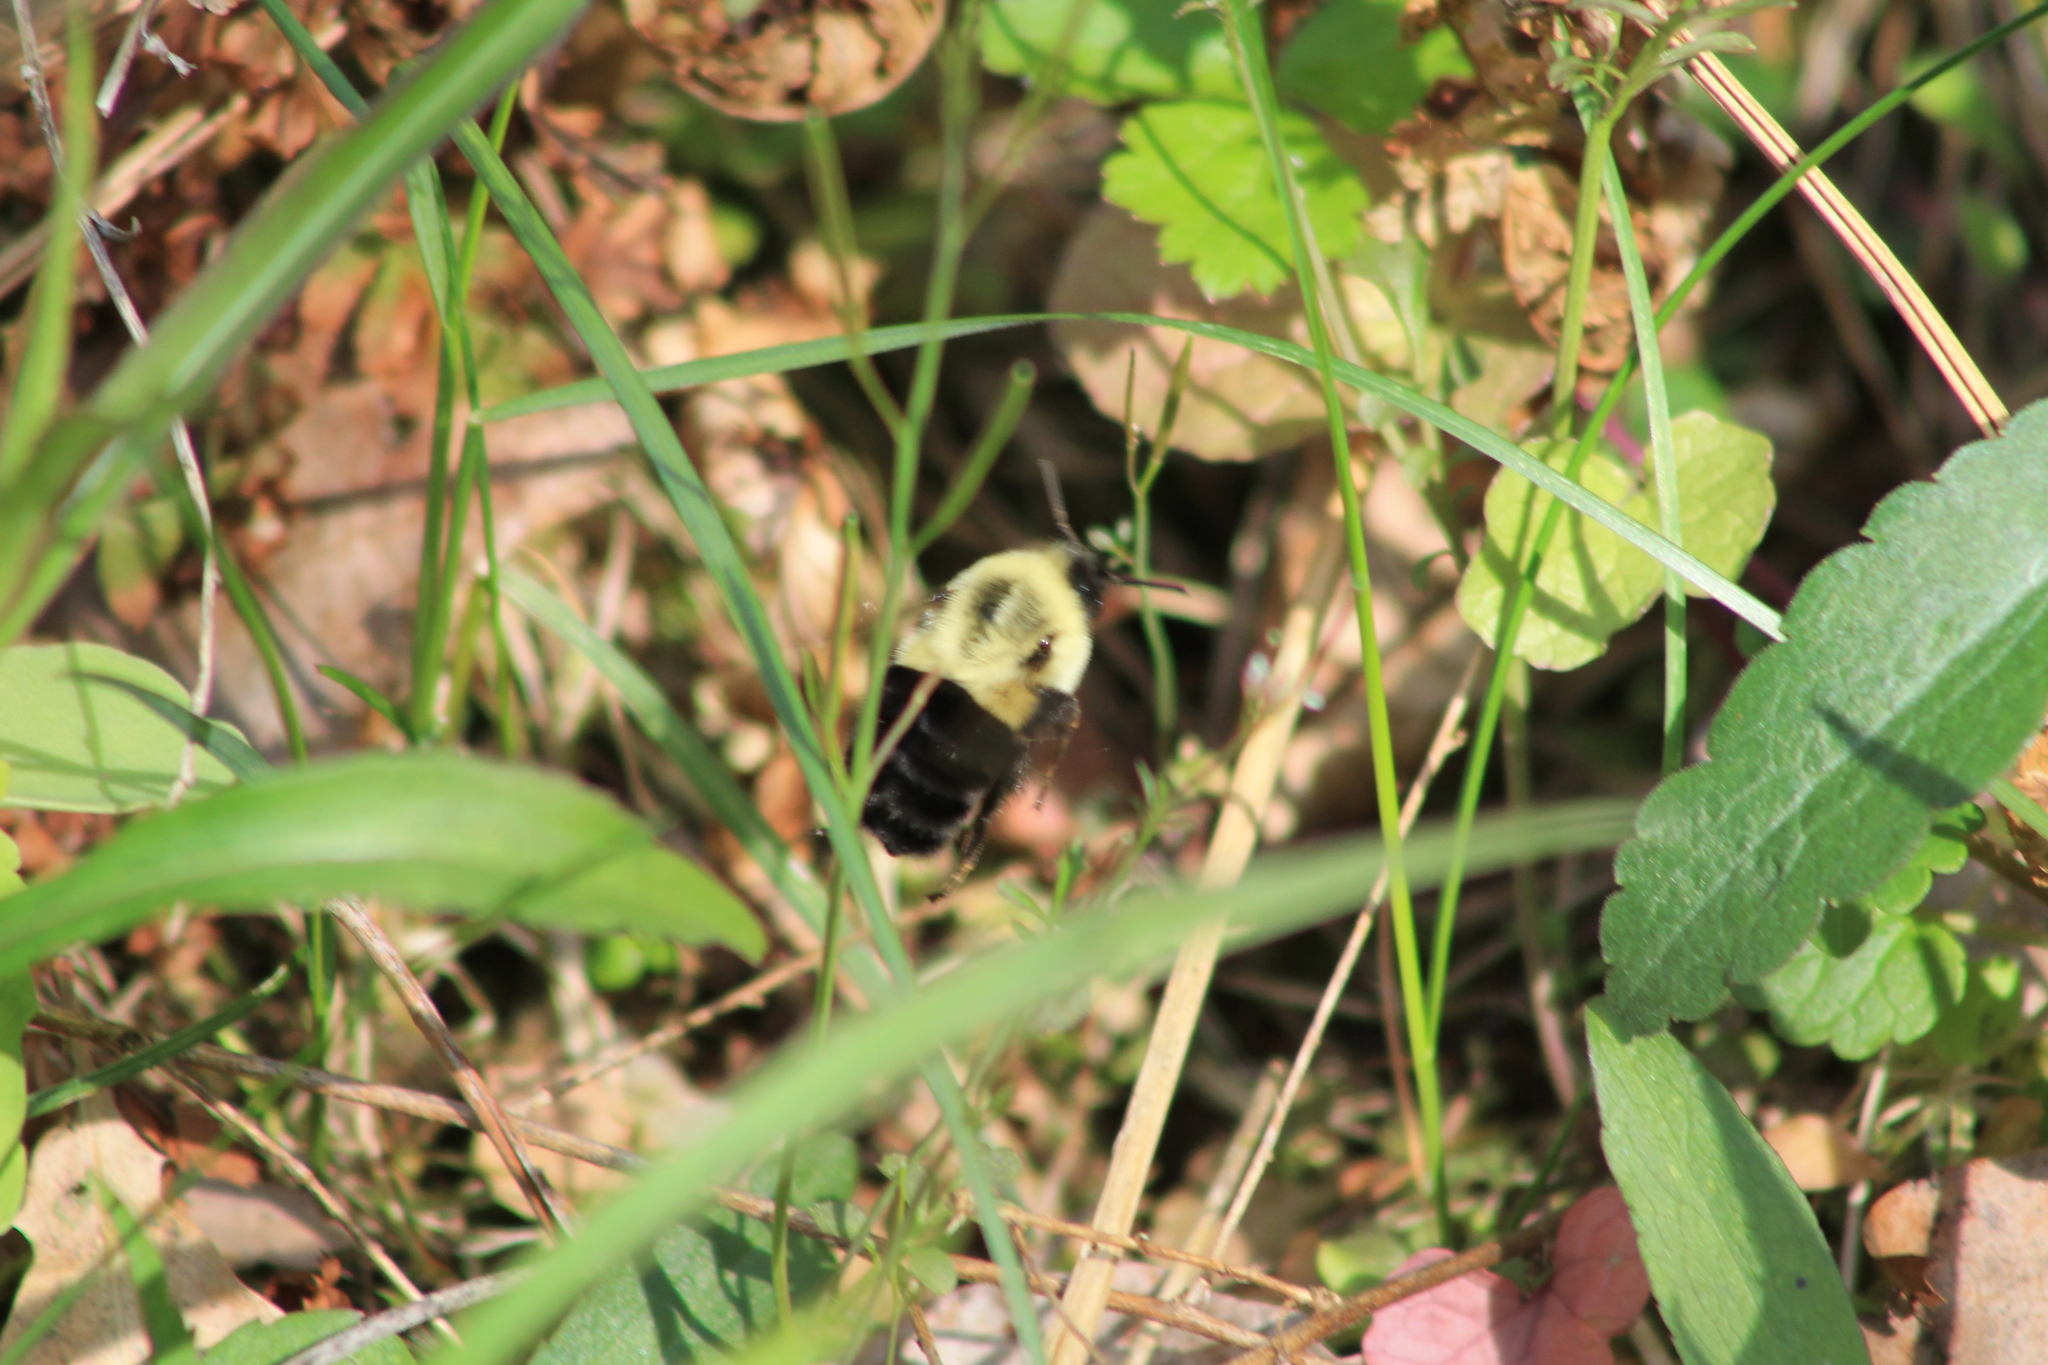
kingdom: Animalia
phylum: Arthropoda
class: Insecta
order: Hymenoptera
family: Apidae
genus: Bombus
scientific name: Bombus impatiens
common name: Common eastern bumble bee
